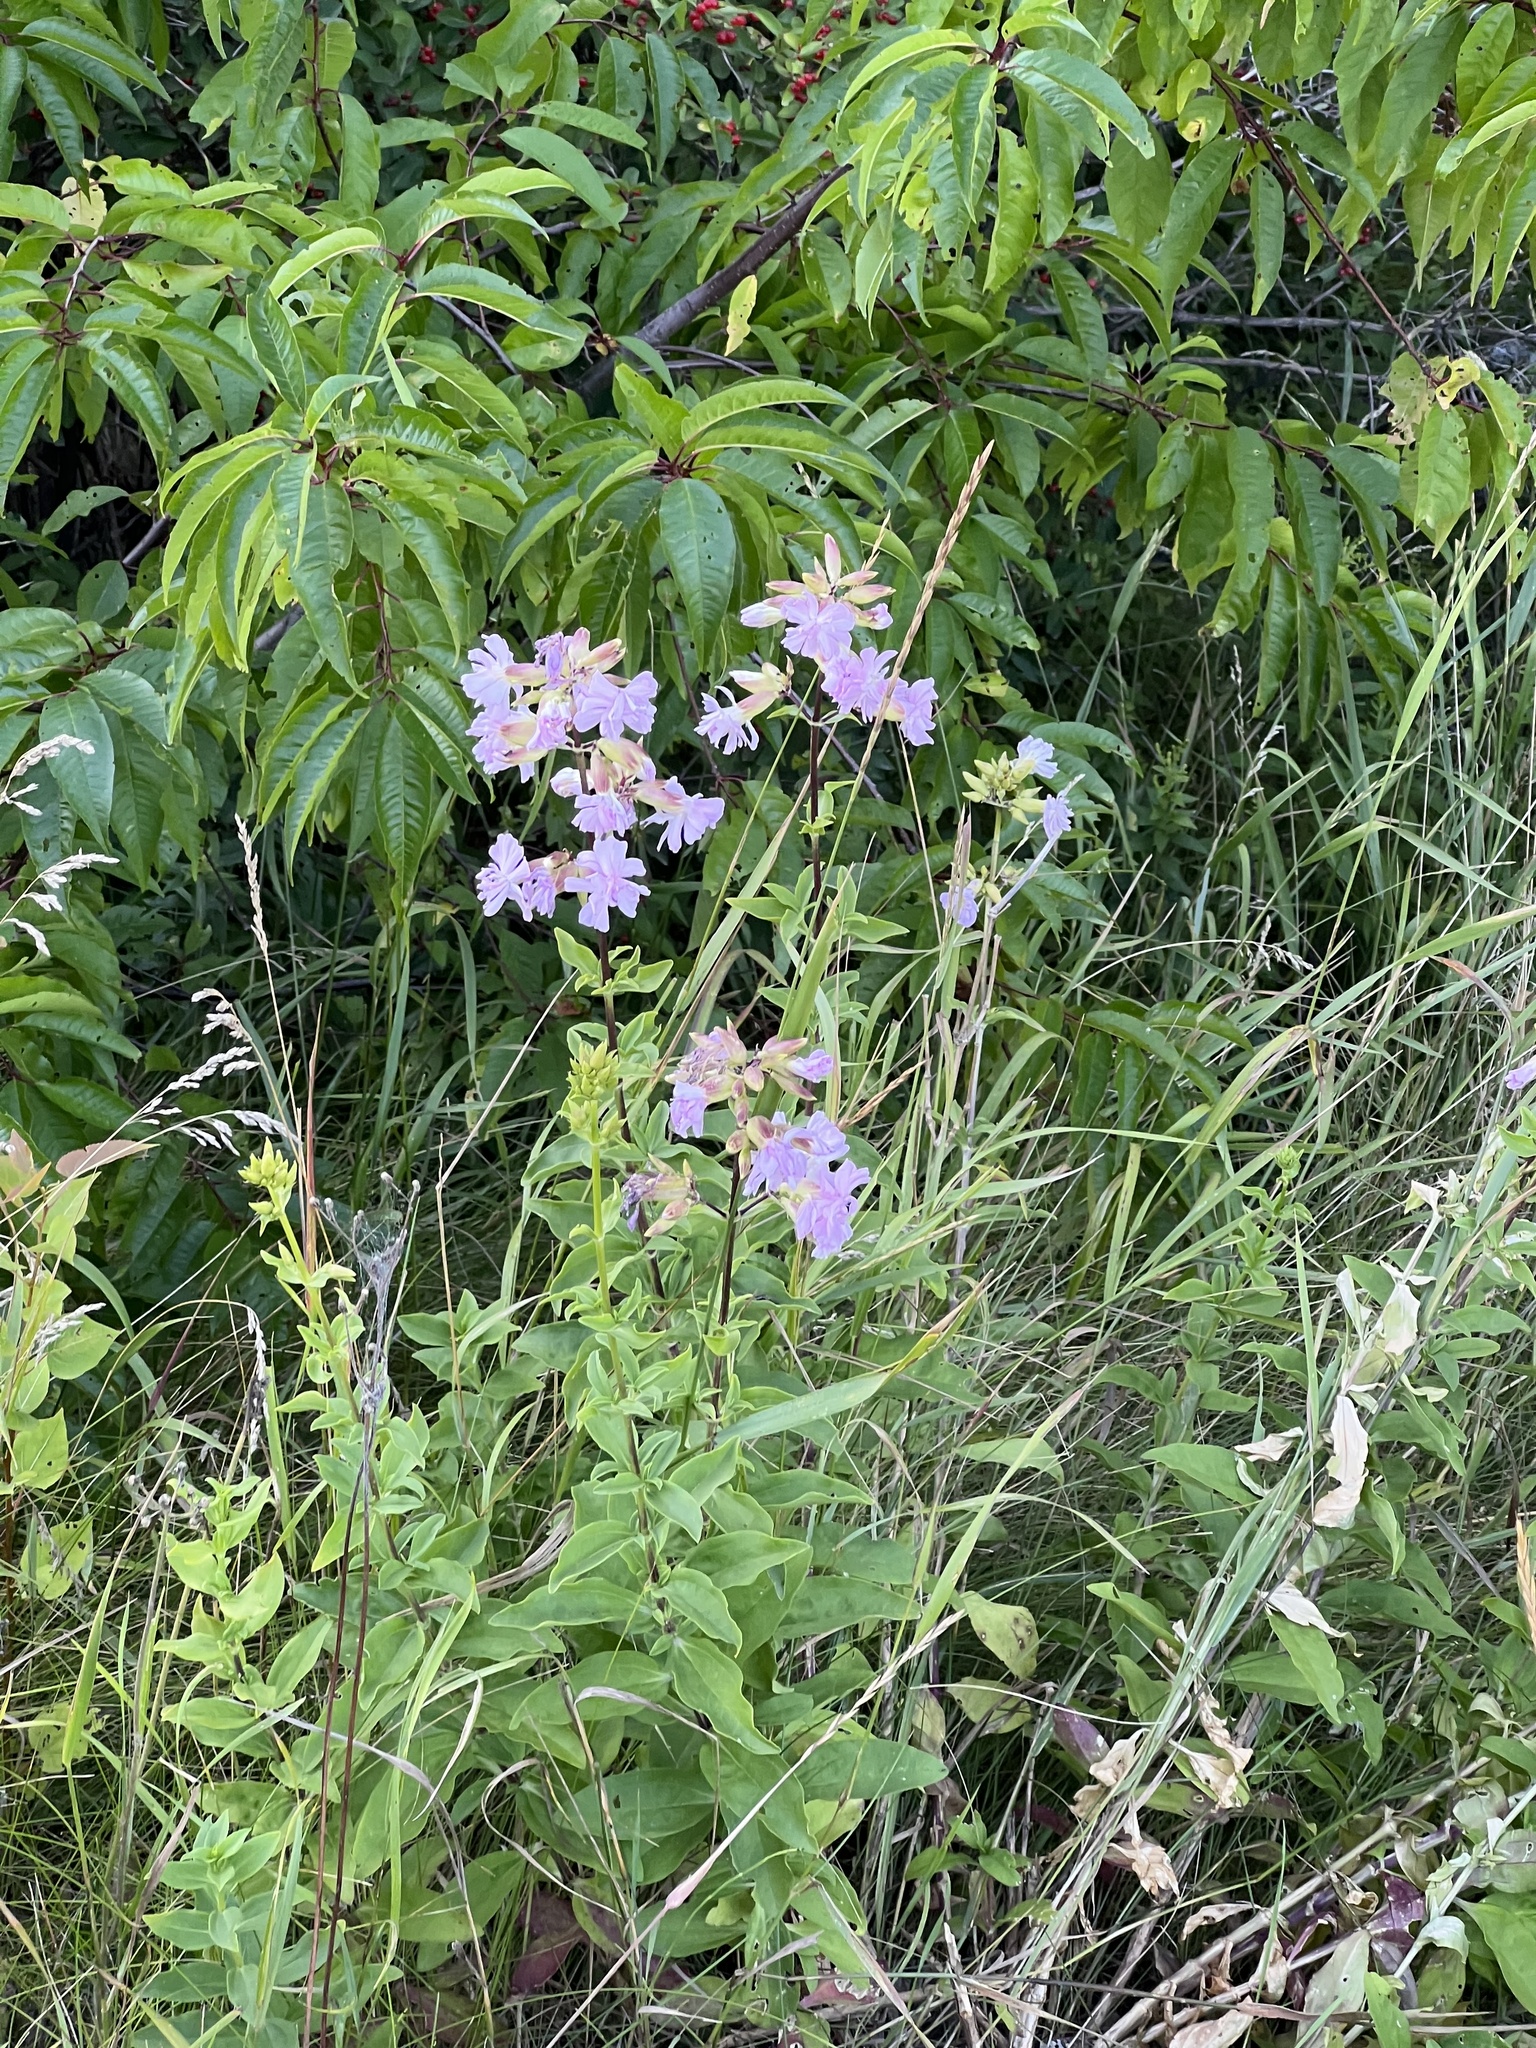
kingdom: Plantae
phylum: Tracheophyta
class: Magnoliopsida
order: Caryophyllales
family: Caryophyllaceae
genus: Saponaria
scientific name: Saponaria officinalis
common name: Soapwort
